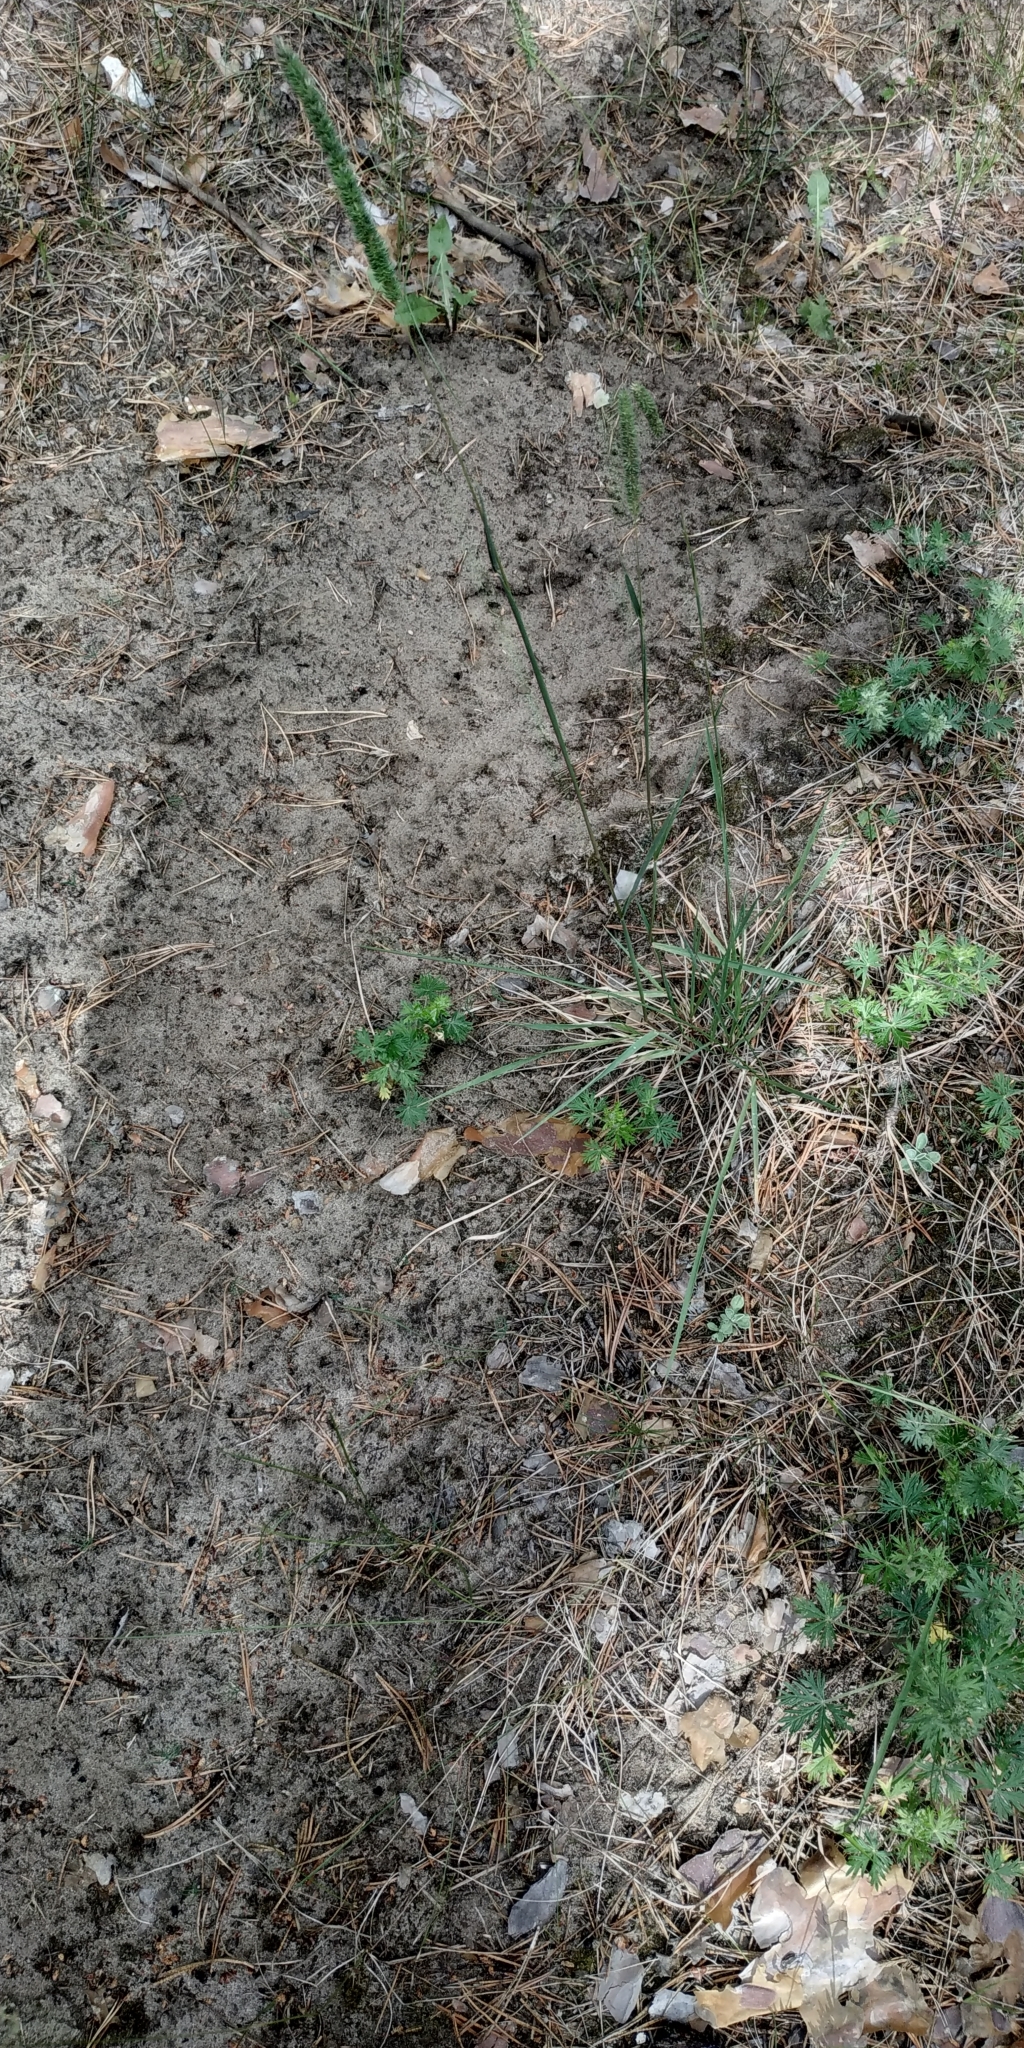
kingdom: Plantae
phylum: Tracheophyta
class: Liliopsida
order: Poales
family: Poaceae
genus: Phleum
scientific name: Phleum phleoides
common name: Purple-stem cat's-tail
